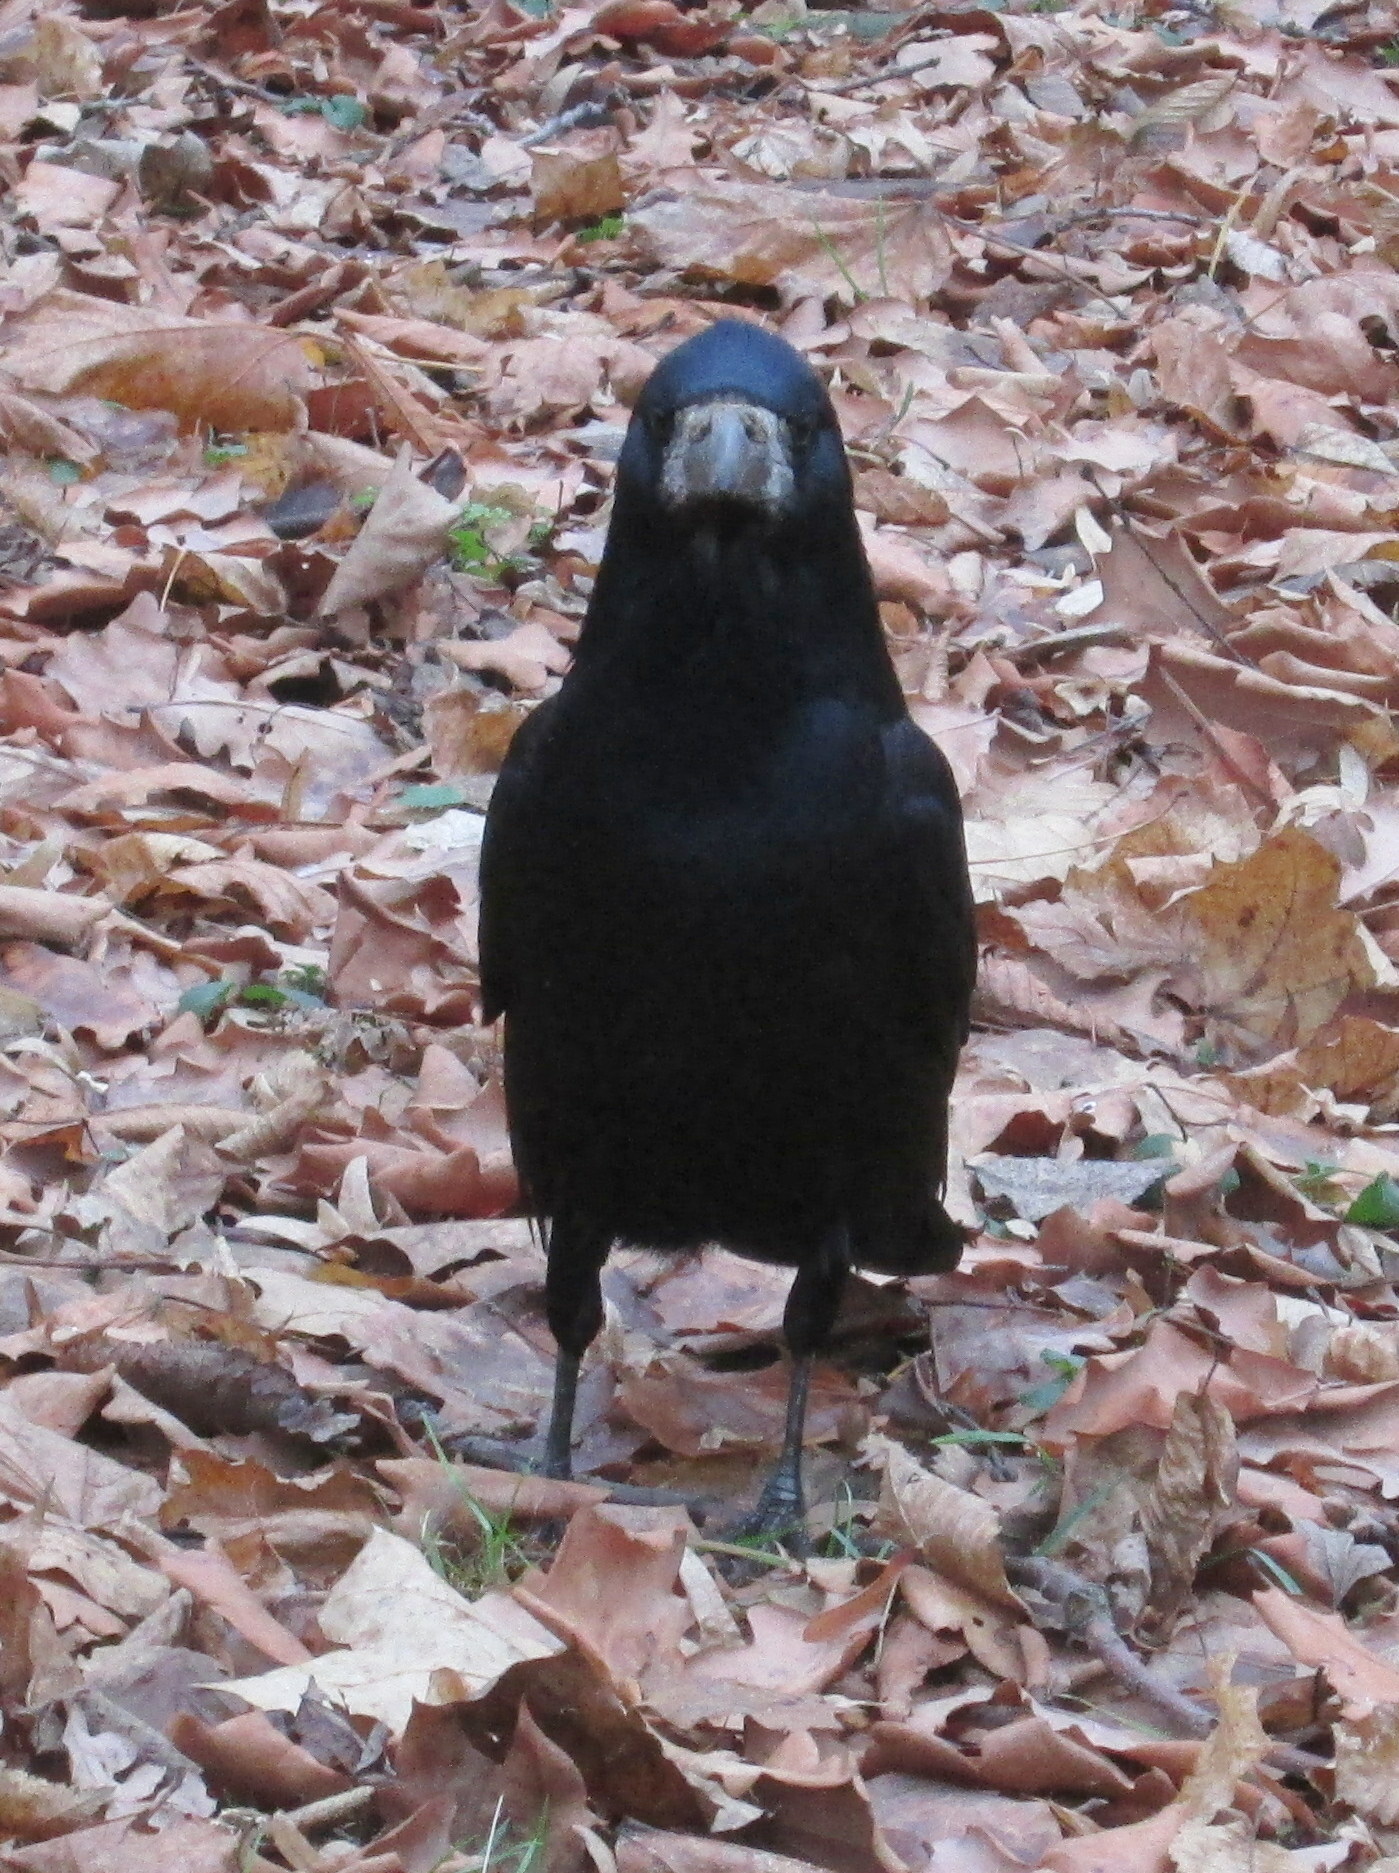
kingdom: Animalia
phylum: Chordata
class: Aves
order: Passeriformes
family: Corvidae
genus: Corvus
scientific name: Corvus frugilegus
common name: Rook
